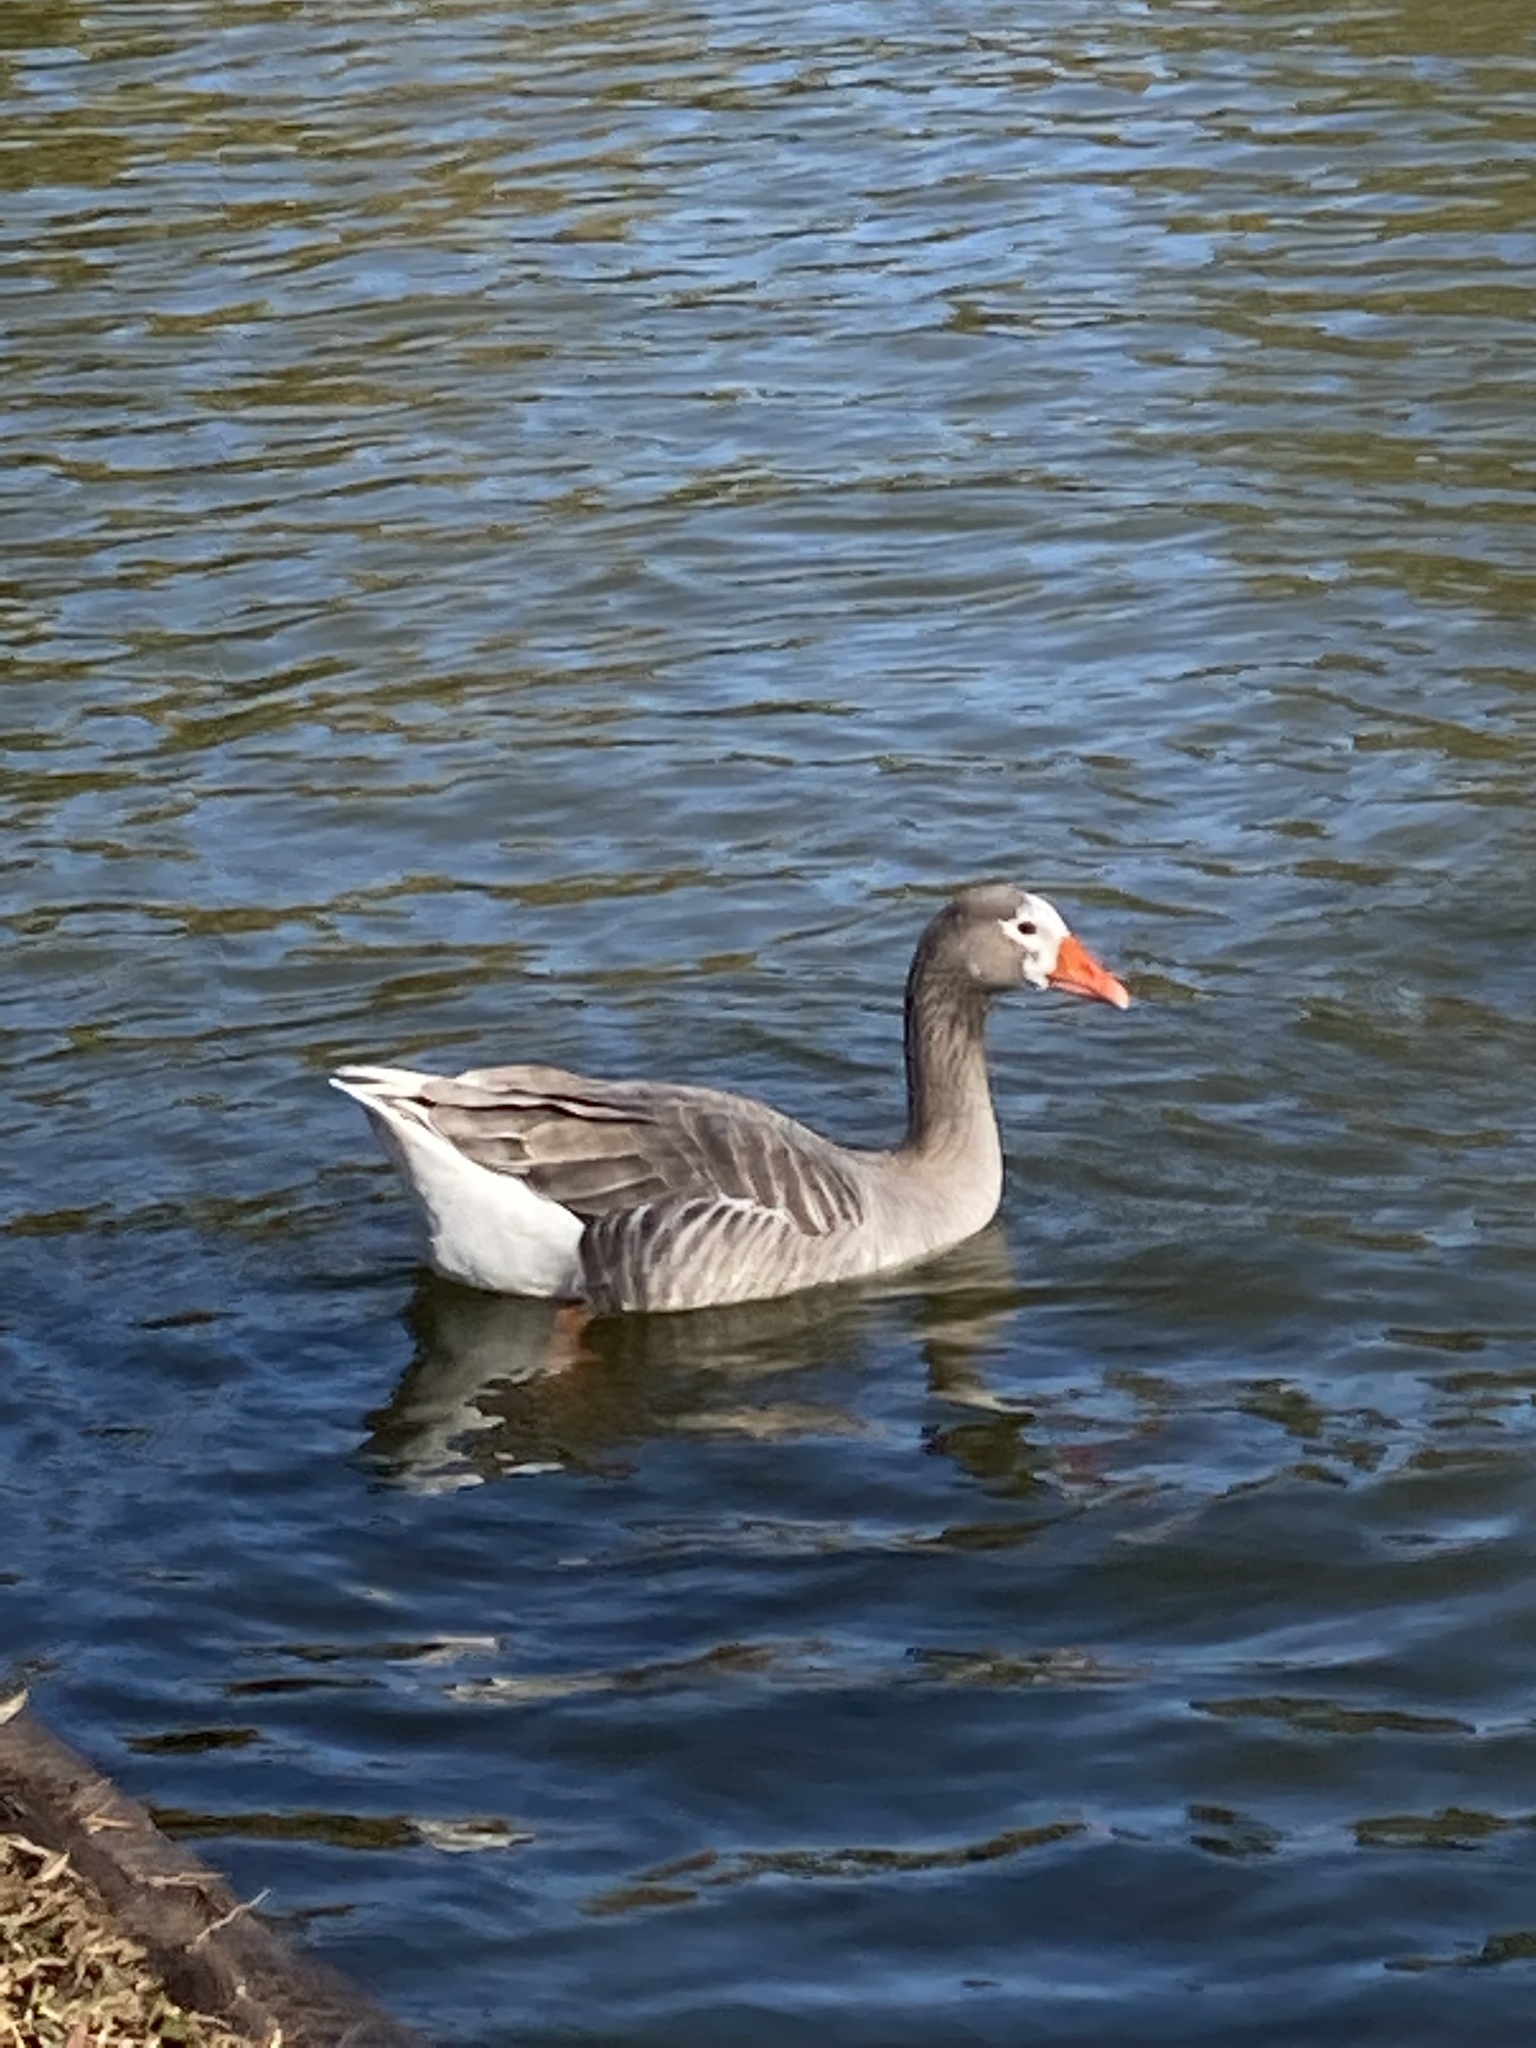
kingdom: Animalia
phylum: Chordata
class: Aves
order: Anseriformes
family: Anatidae
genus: Anser
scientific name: Anser anser
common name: Greylag goose
